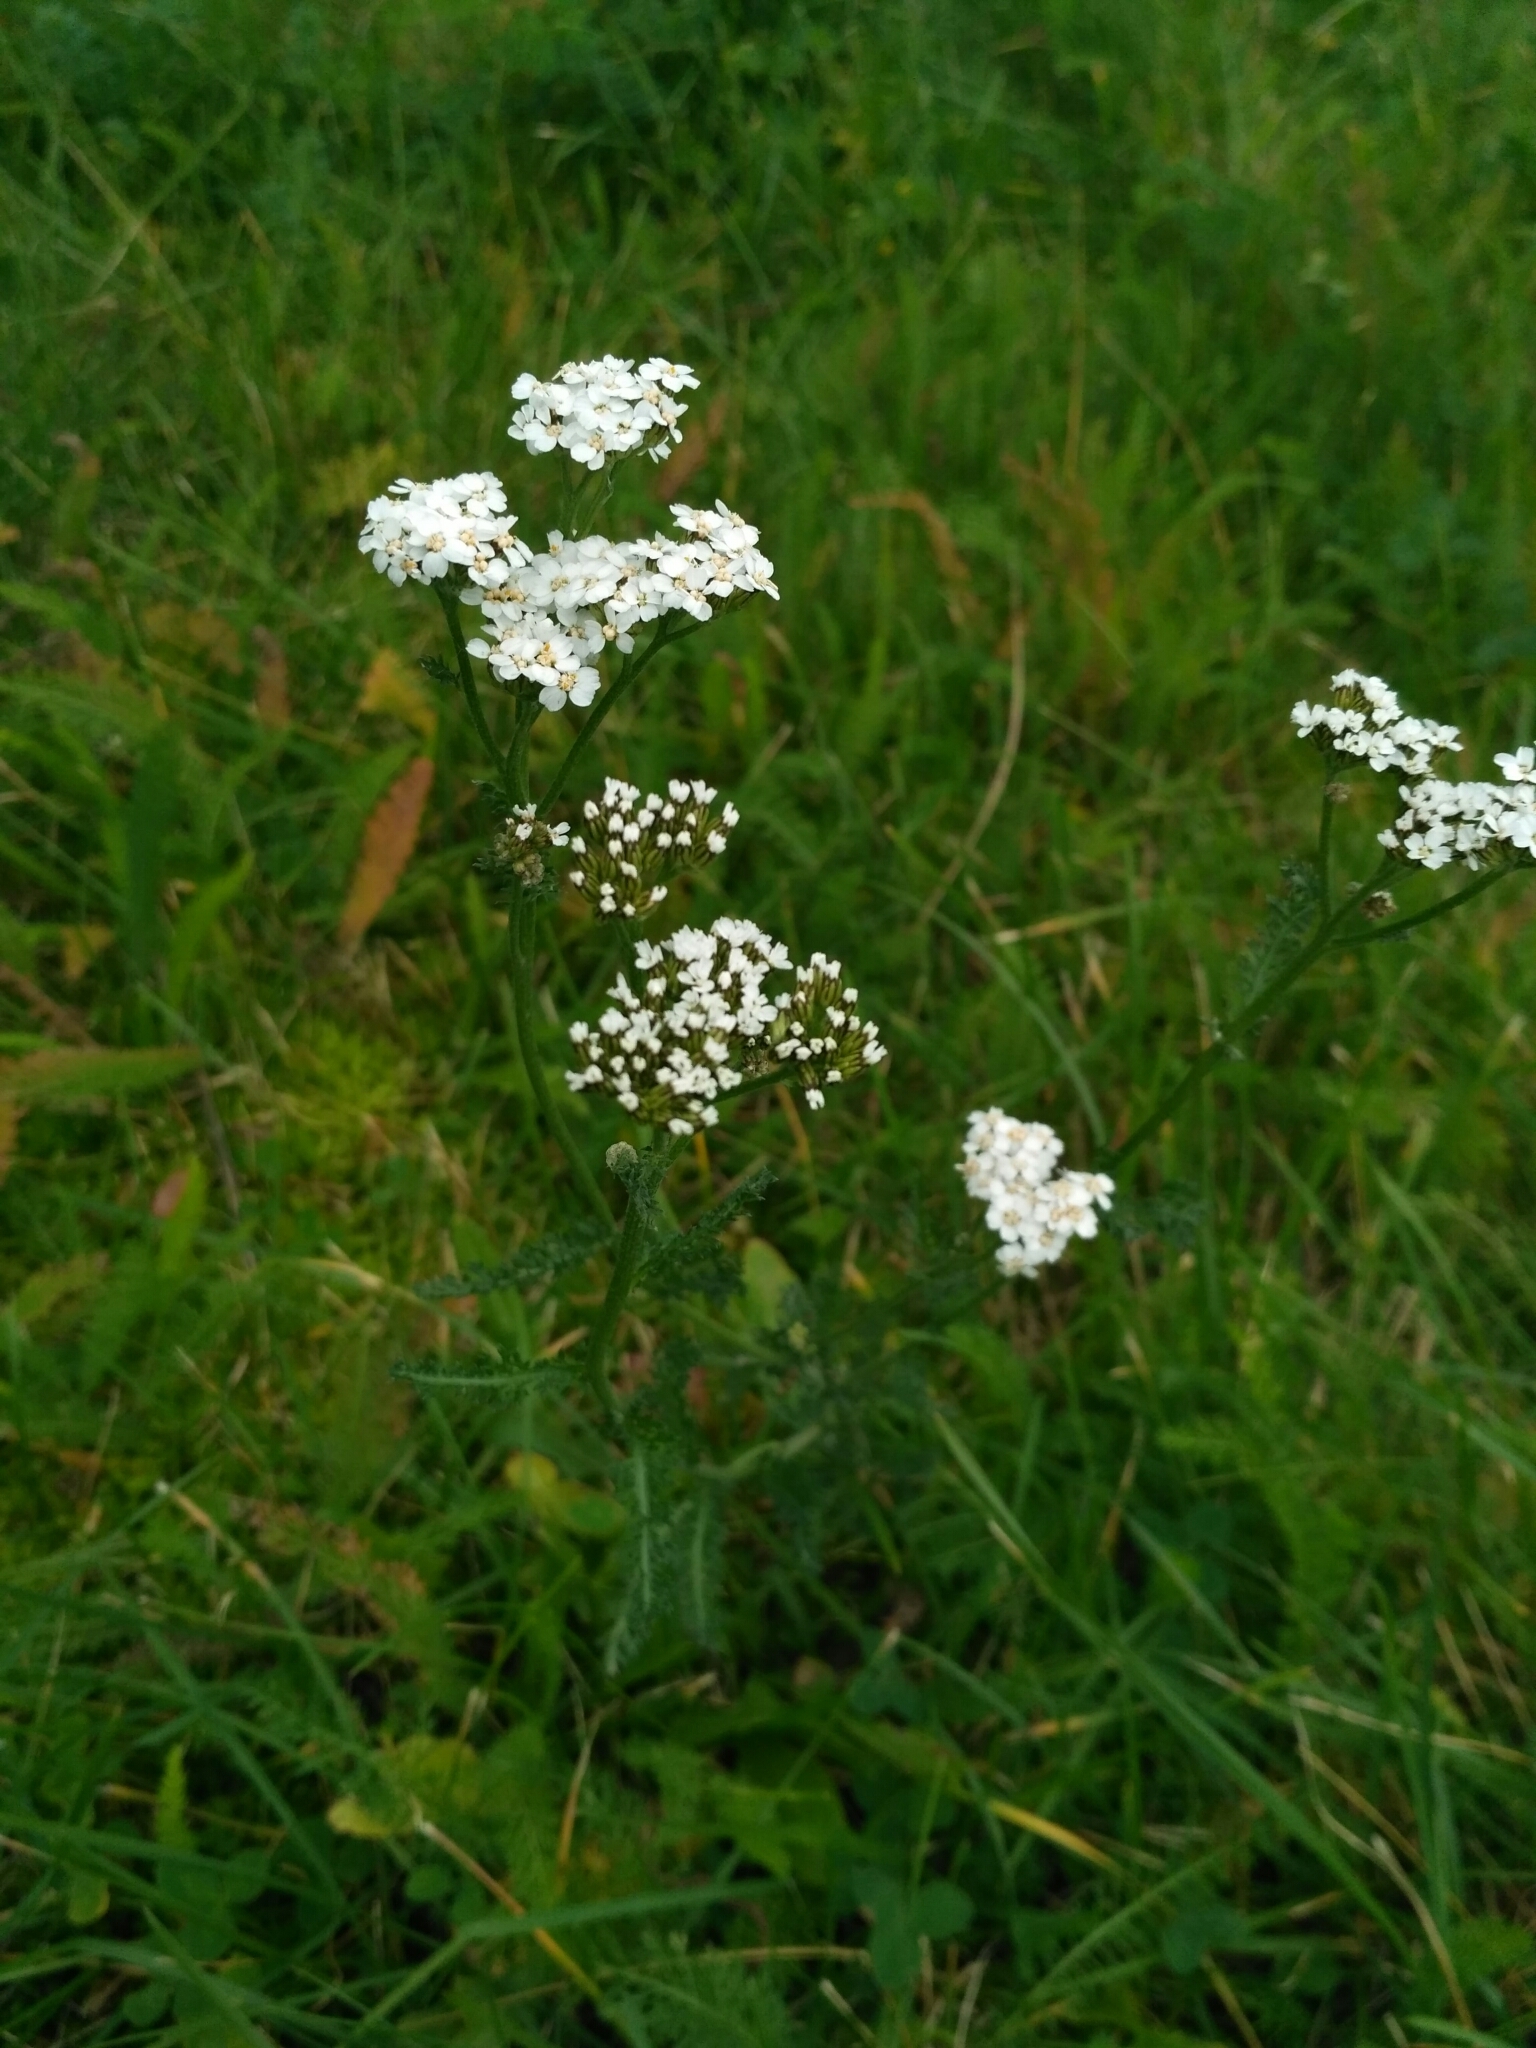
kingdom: Plantae
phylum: Tracheophyta
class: Magnoliopsida
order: Asterales
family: Asteraceae
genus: Achillea
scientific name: Achillea millefolium
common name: Yarrow
